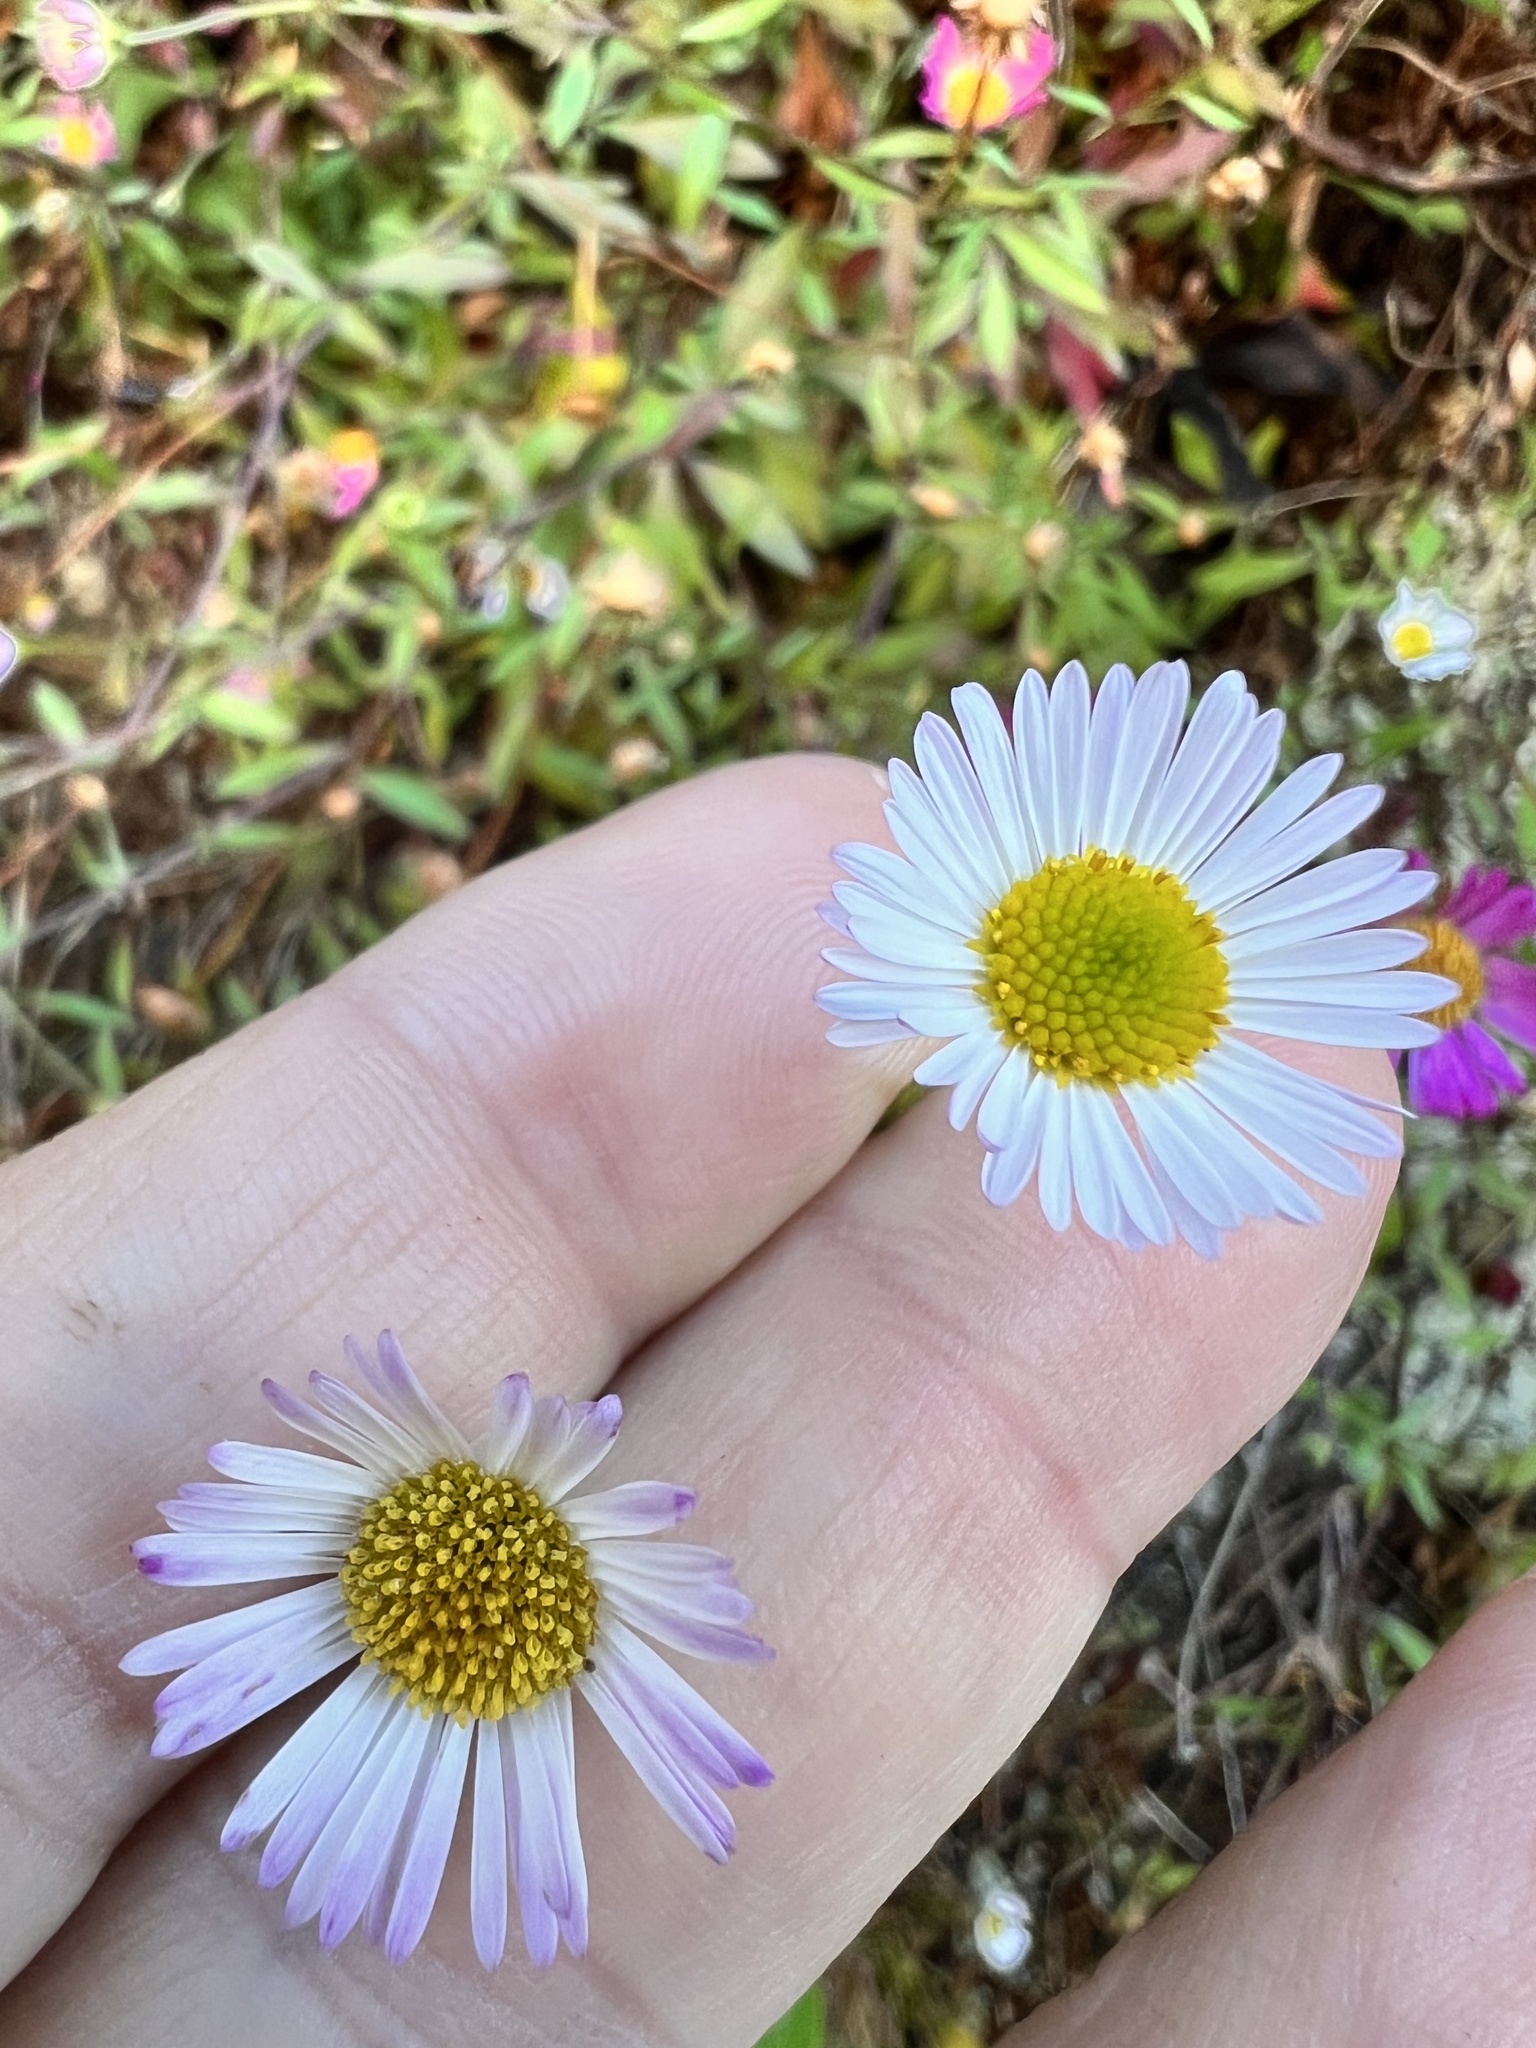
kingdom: Plantae
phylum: Tracheophyta
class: Magnoliopsida
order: Asterales
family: Asteraceae
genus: Erigeron
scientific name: Erigeron karvinskianus
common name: Mexican fleabane
